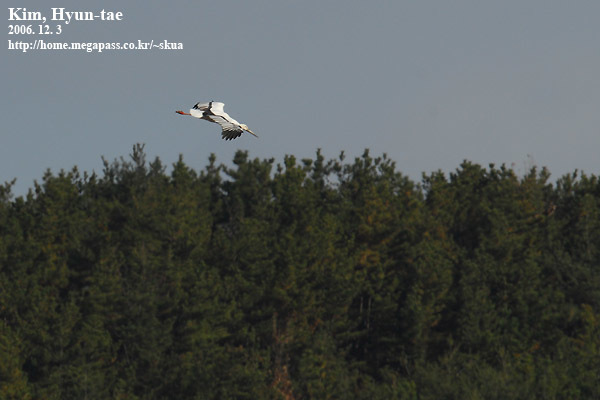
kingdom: Animalia
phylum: Chordata
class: Aves
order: Ciconiiformes
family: Ciconiidae
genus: Ciconia
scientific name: Ciconia boyciana
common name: Oriental stork
